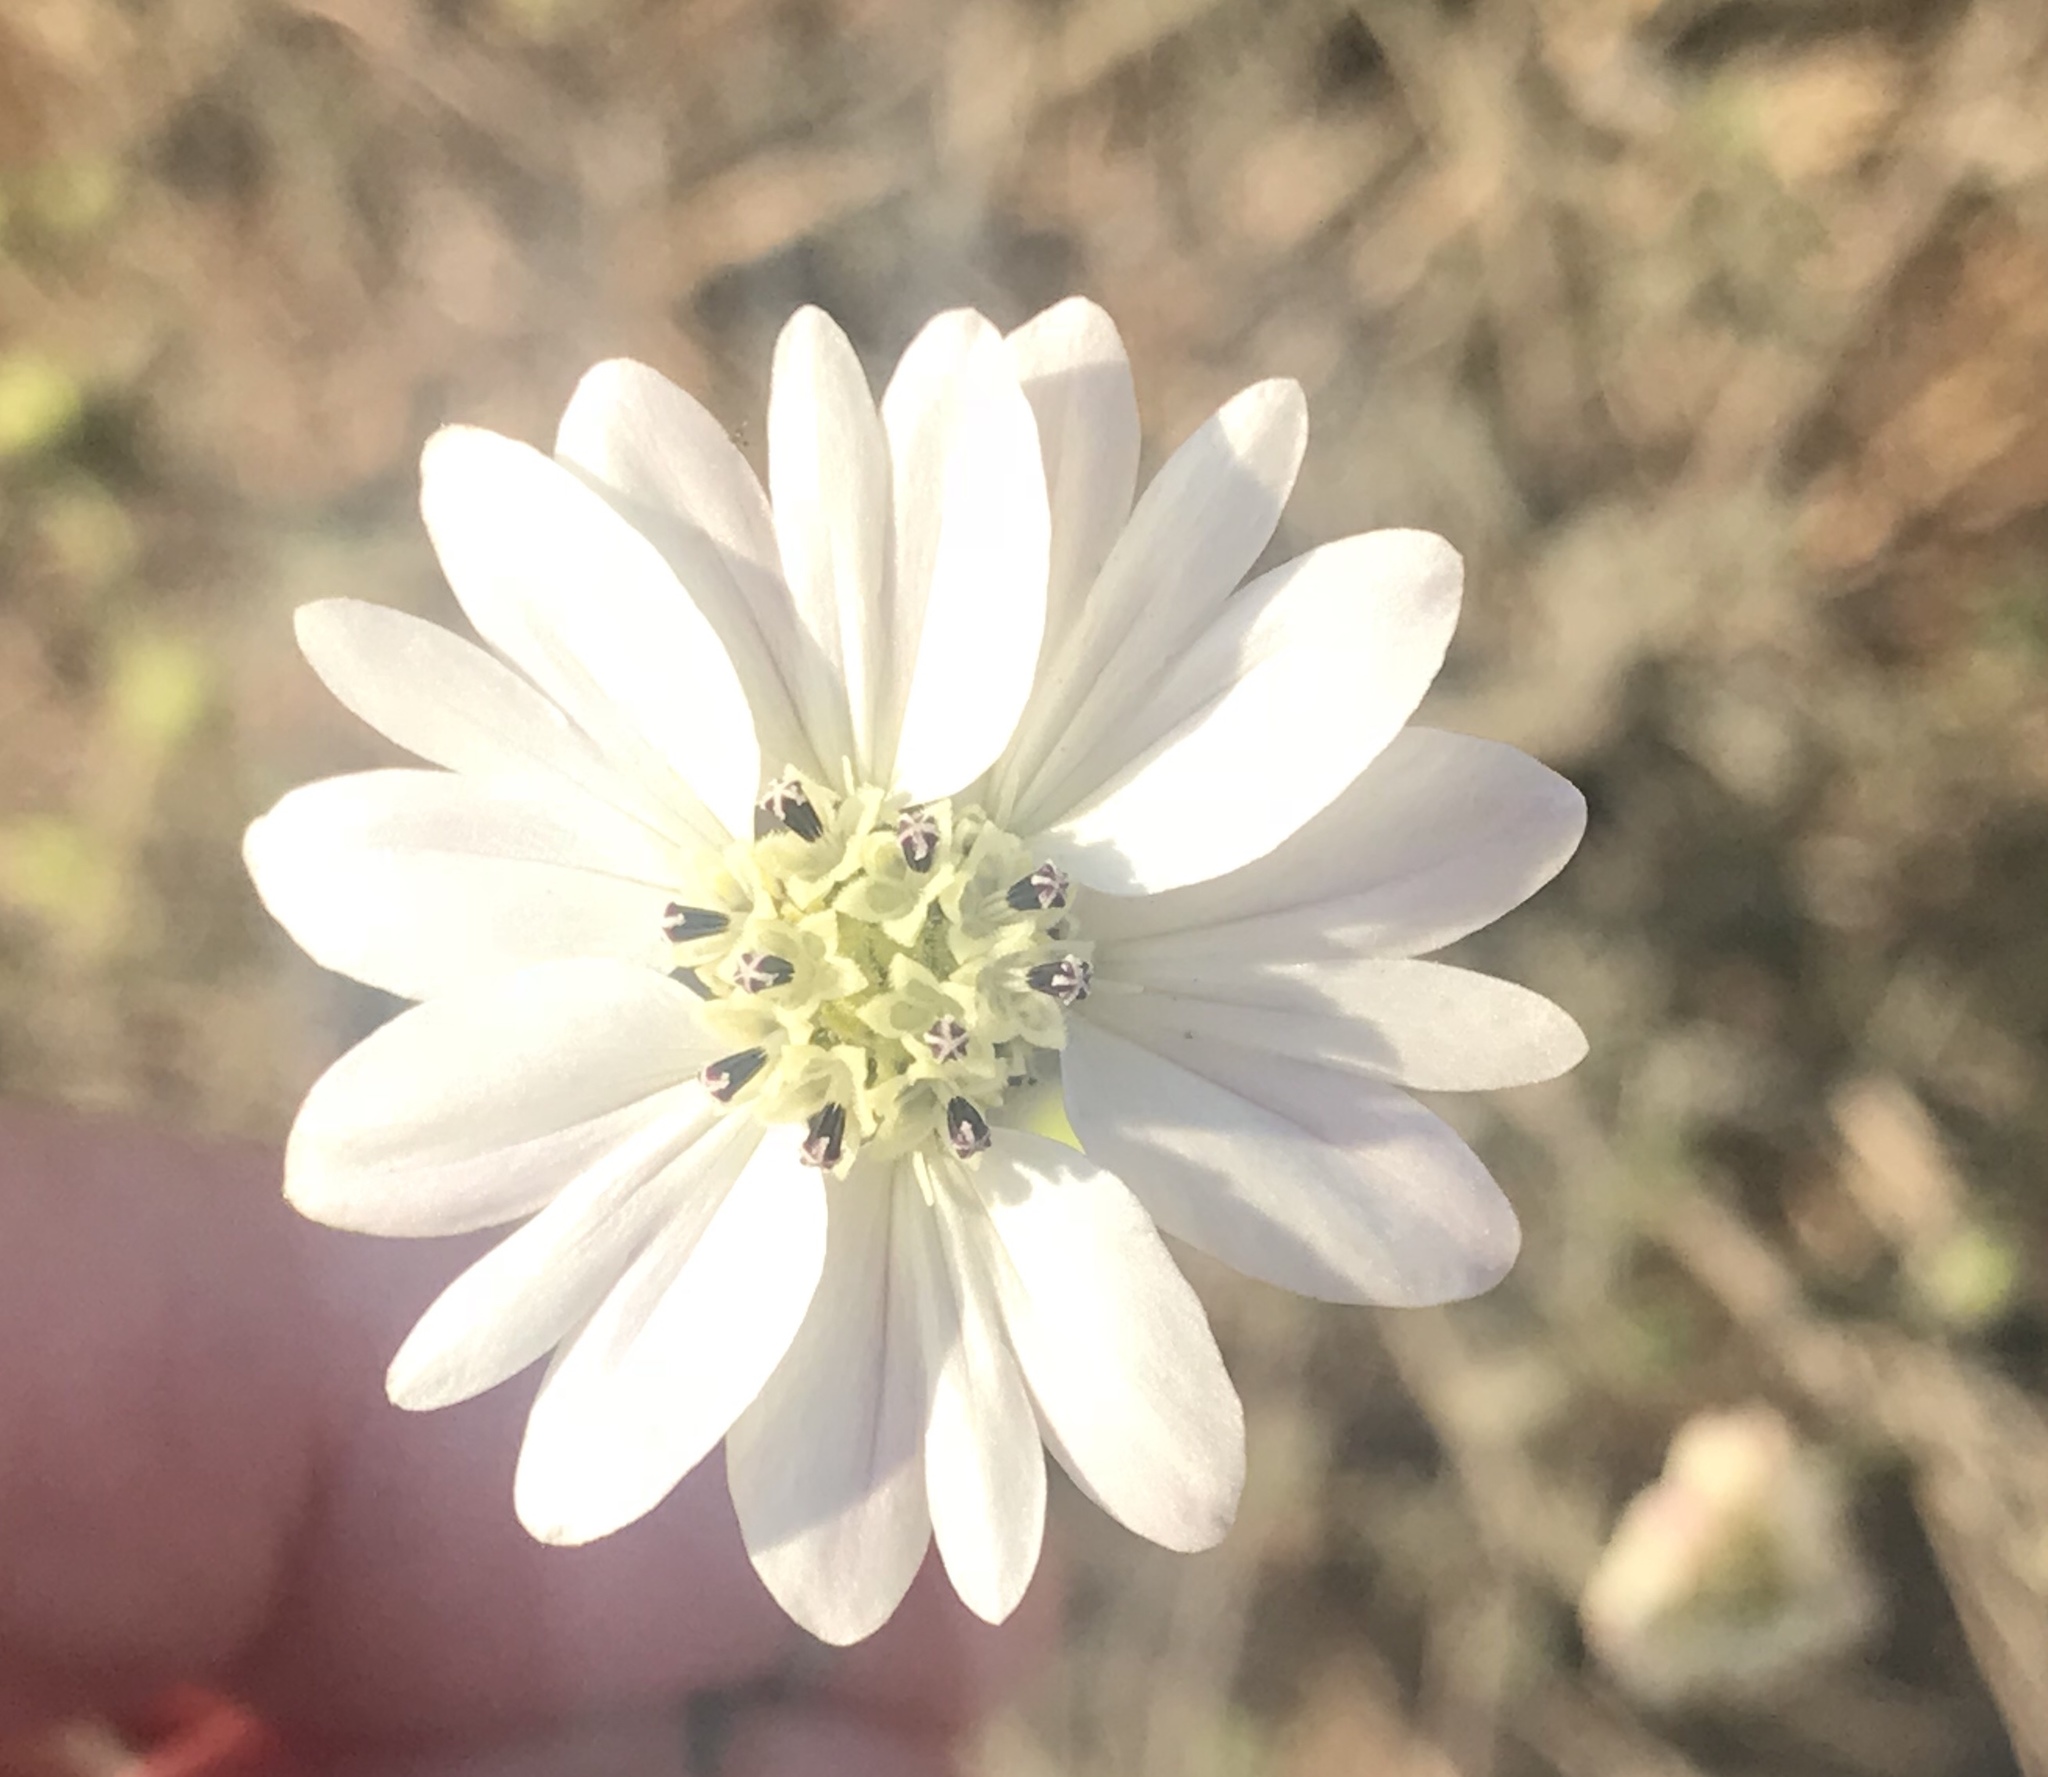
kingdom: Plantae
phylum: Tracheophyta
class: Magnoliopsida
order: Asterales
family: Asteraceae
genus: Hemizonia
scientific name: Hemizonia congesta
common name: Hayfield tarweed
